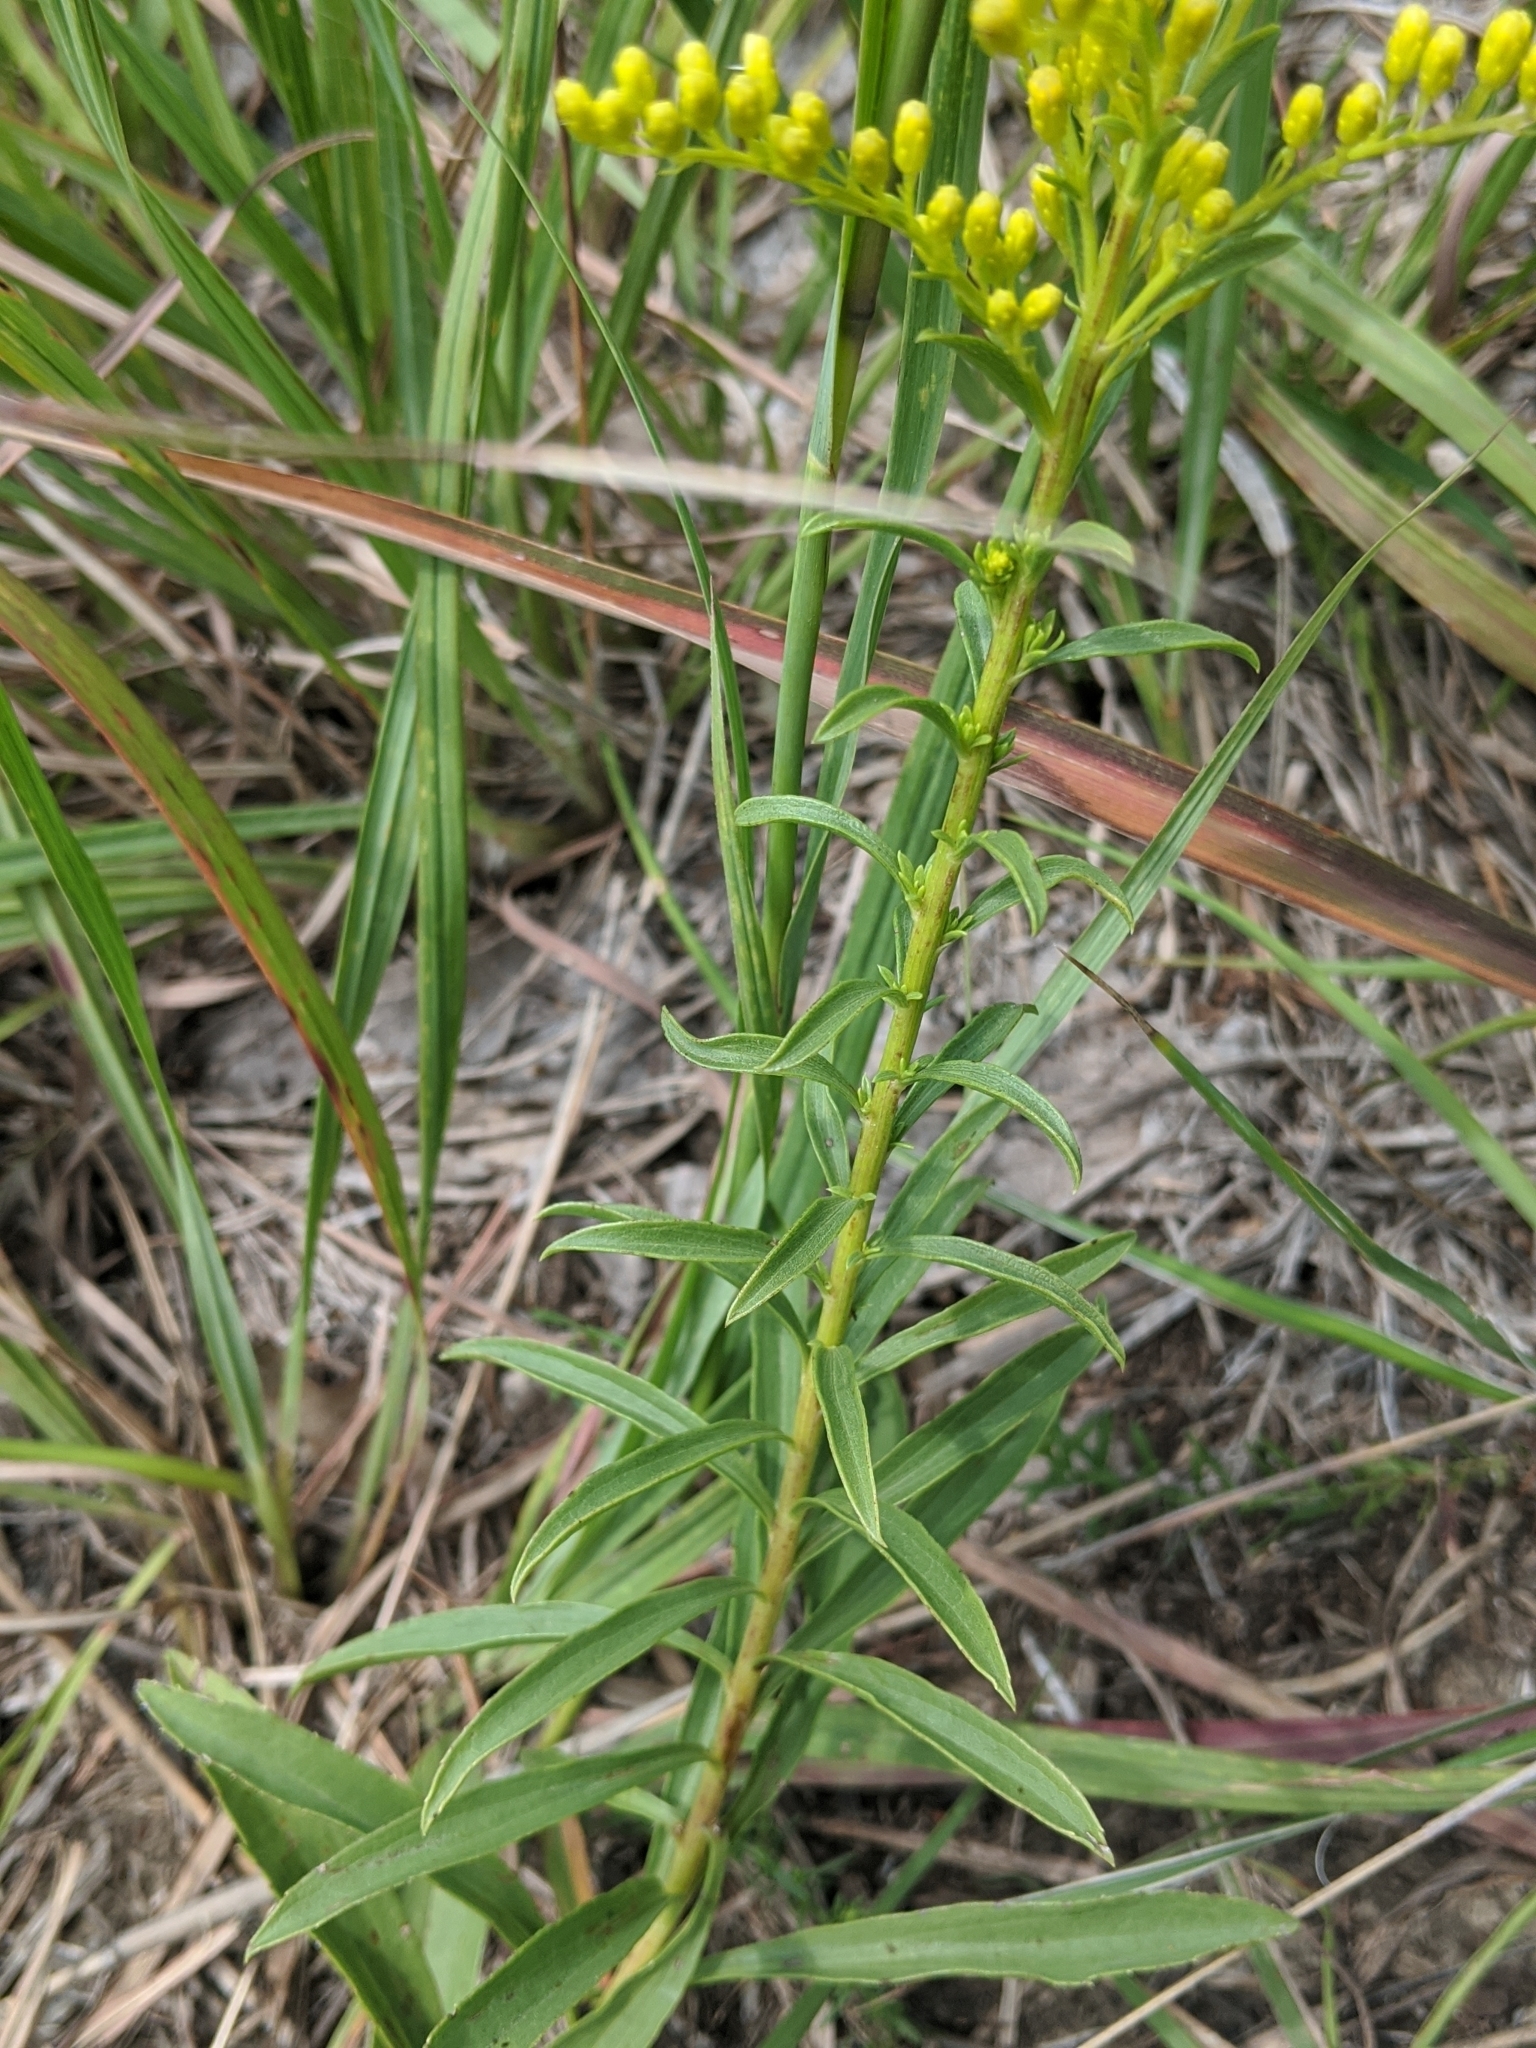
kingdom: Plantae
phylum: Tracheophyta
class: Magnoliopsida
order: Asterales
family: Asteraceae
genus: Solidago
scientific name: Solidago missouriensis
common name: Prairie goldenrod
